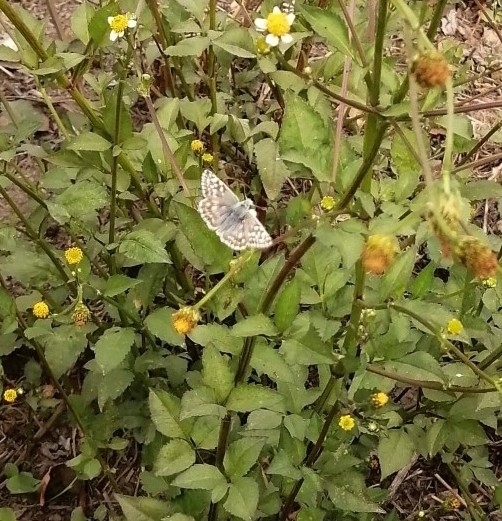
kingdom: Animalia
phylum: Arthropoda
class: Insecta
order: Lepidoptera
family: Hesperiidae
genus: Heliopetes
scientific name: Heliopetes americanus
